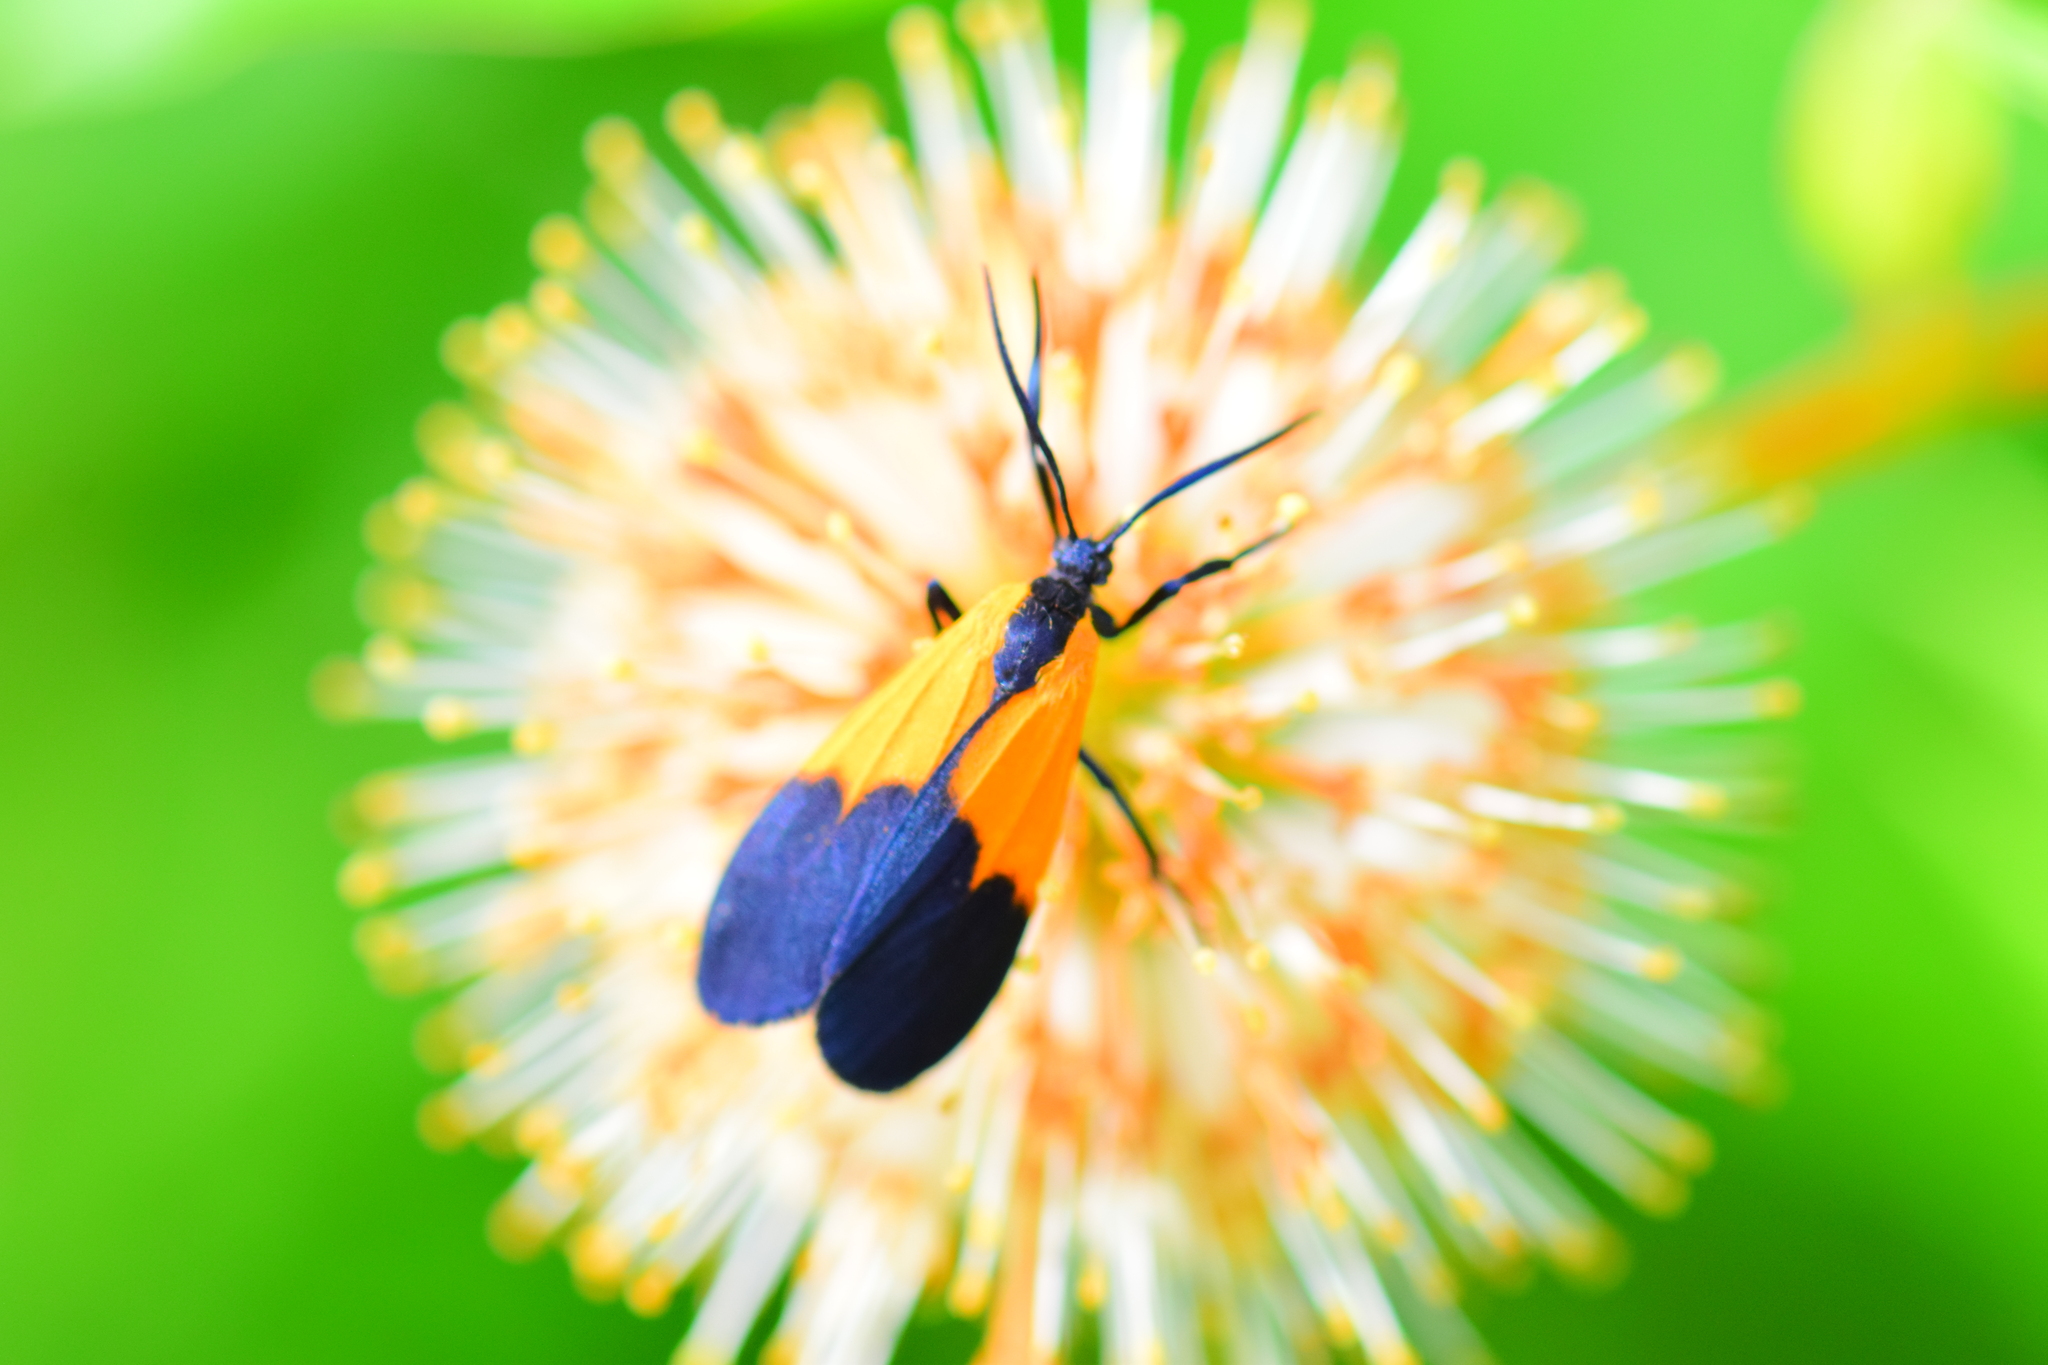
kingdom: Animalia
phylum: Arthropoda
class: Insecta
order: Lepidoptera
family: Erebidae
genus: Lycomorpha
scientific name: Lycomorpha pholus
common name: Black-and-yellow lichen moth
